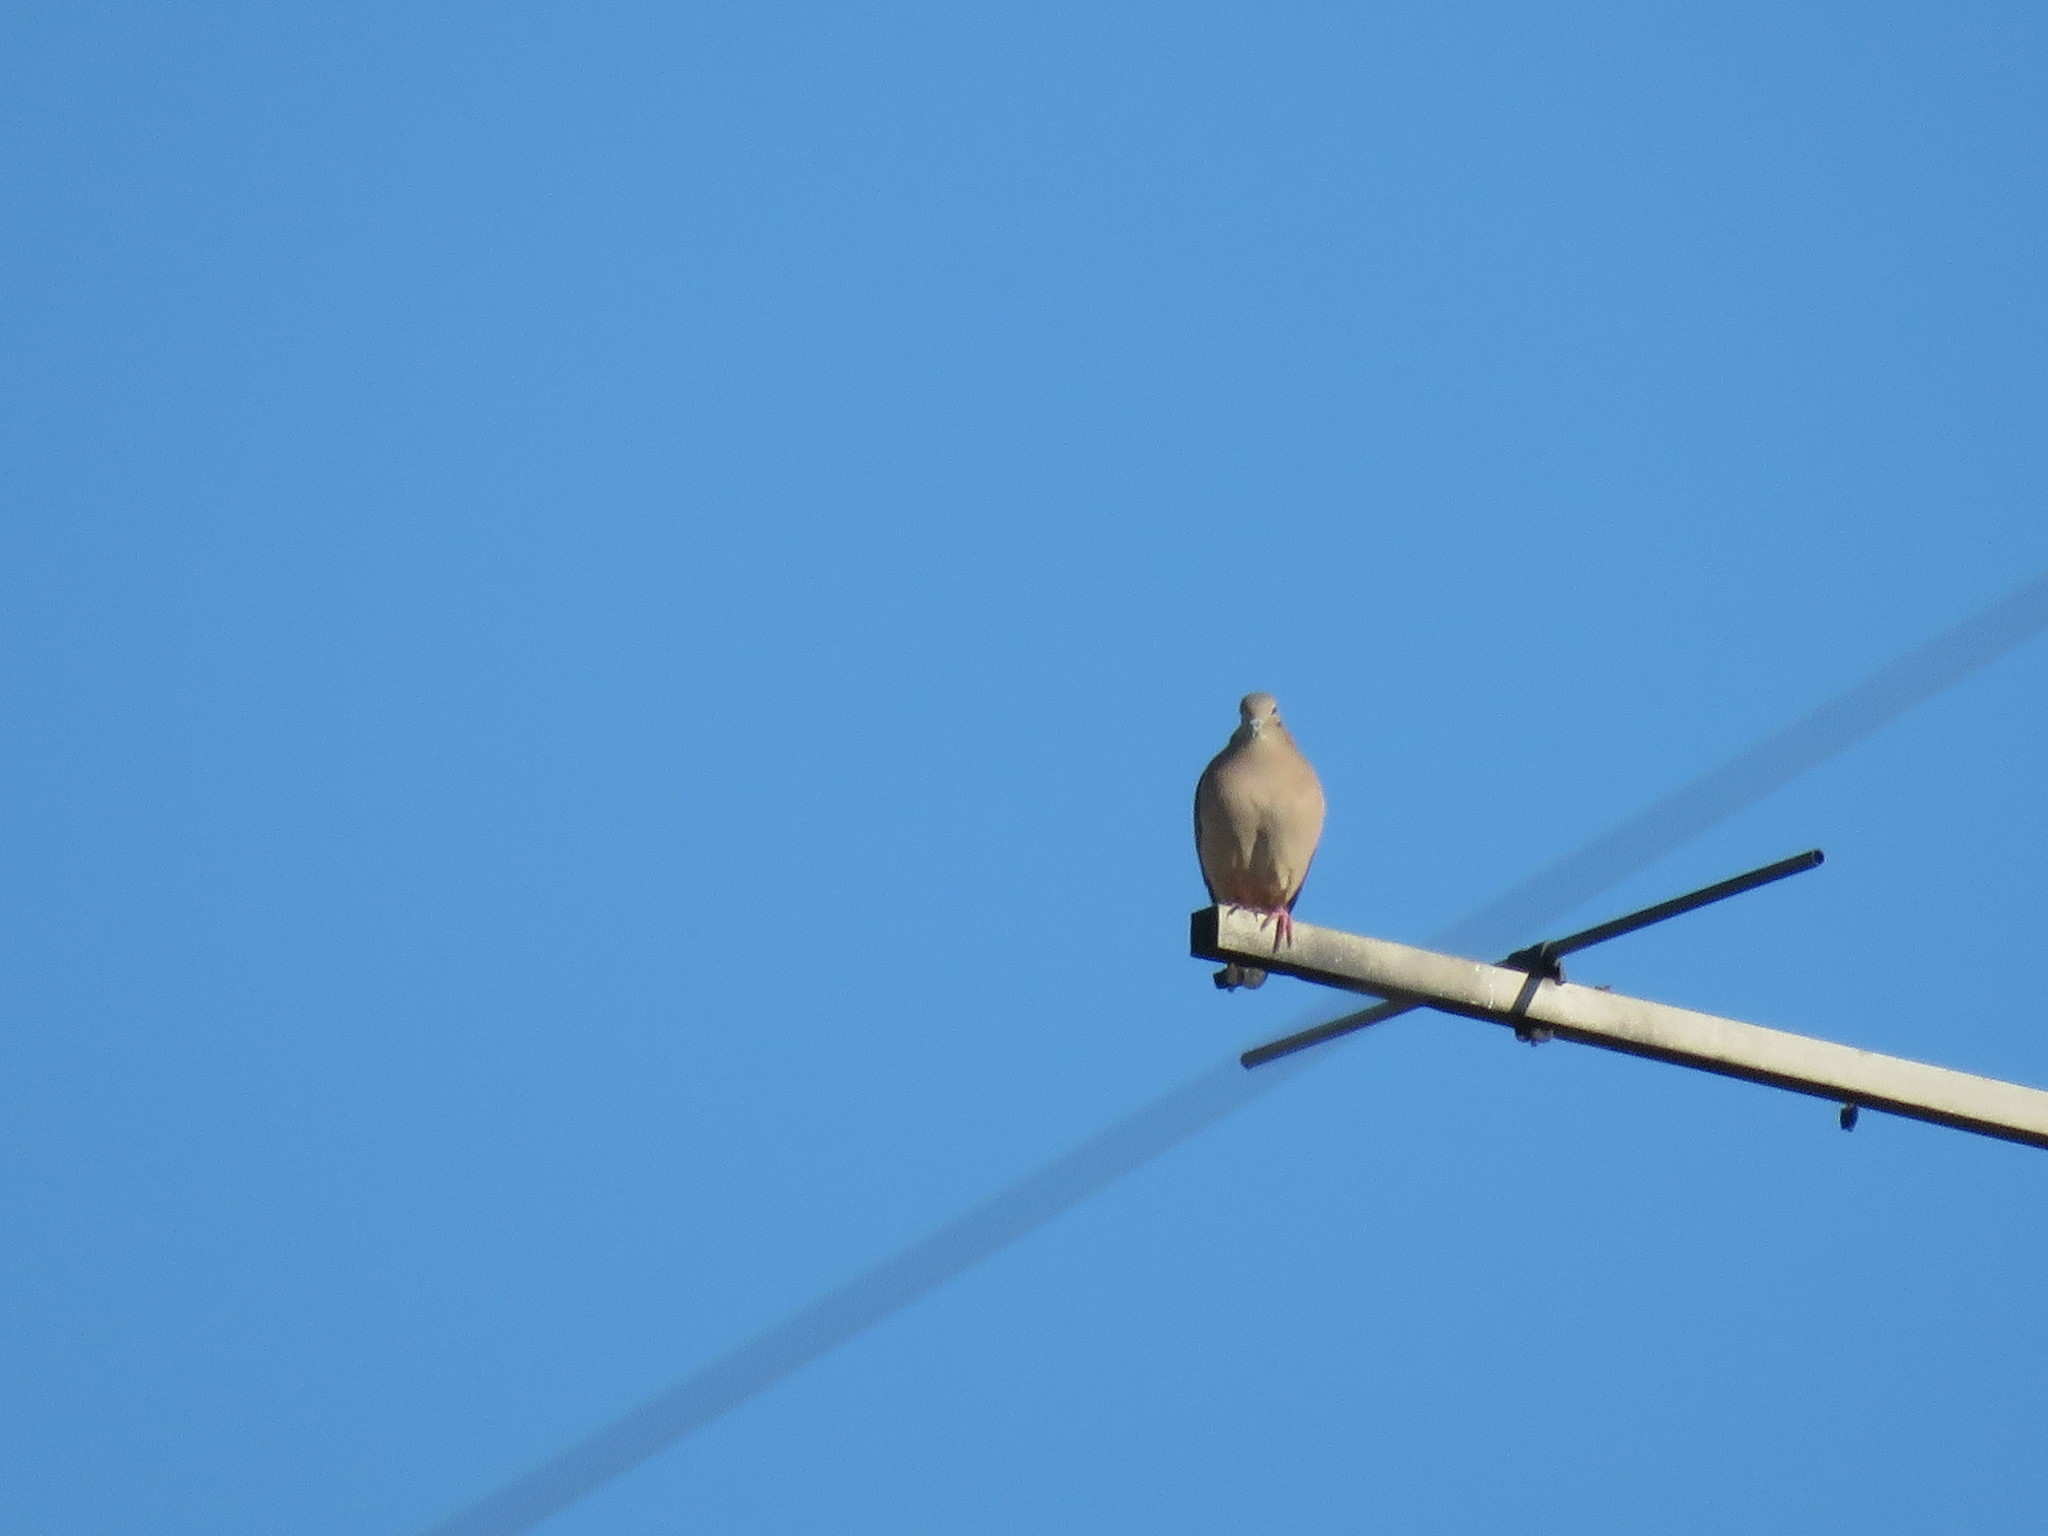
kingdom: Animalia
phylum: Chordata
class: Aves
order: Columbiformes
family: Columbidae
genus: Zenaida
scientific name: Zenaida auriculata
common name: Eared dove
